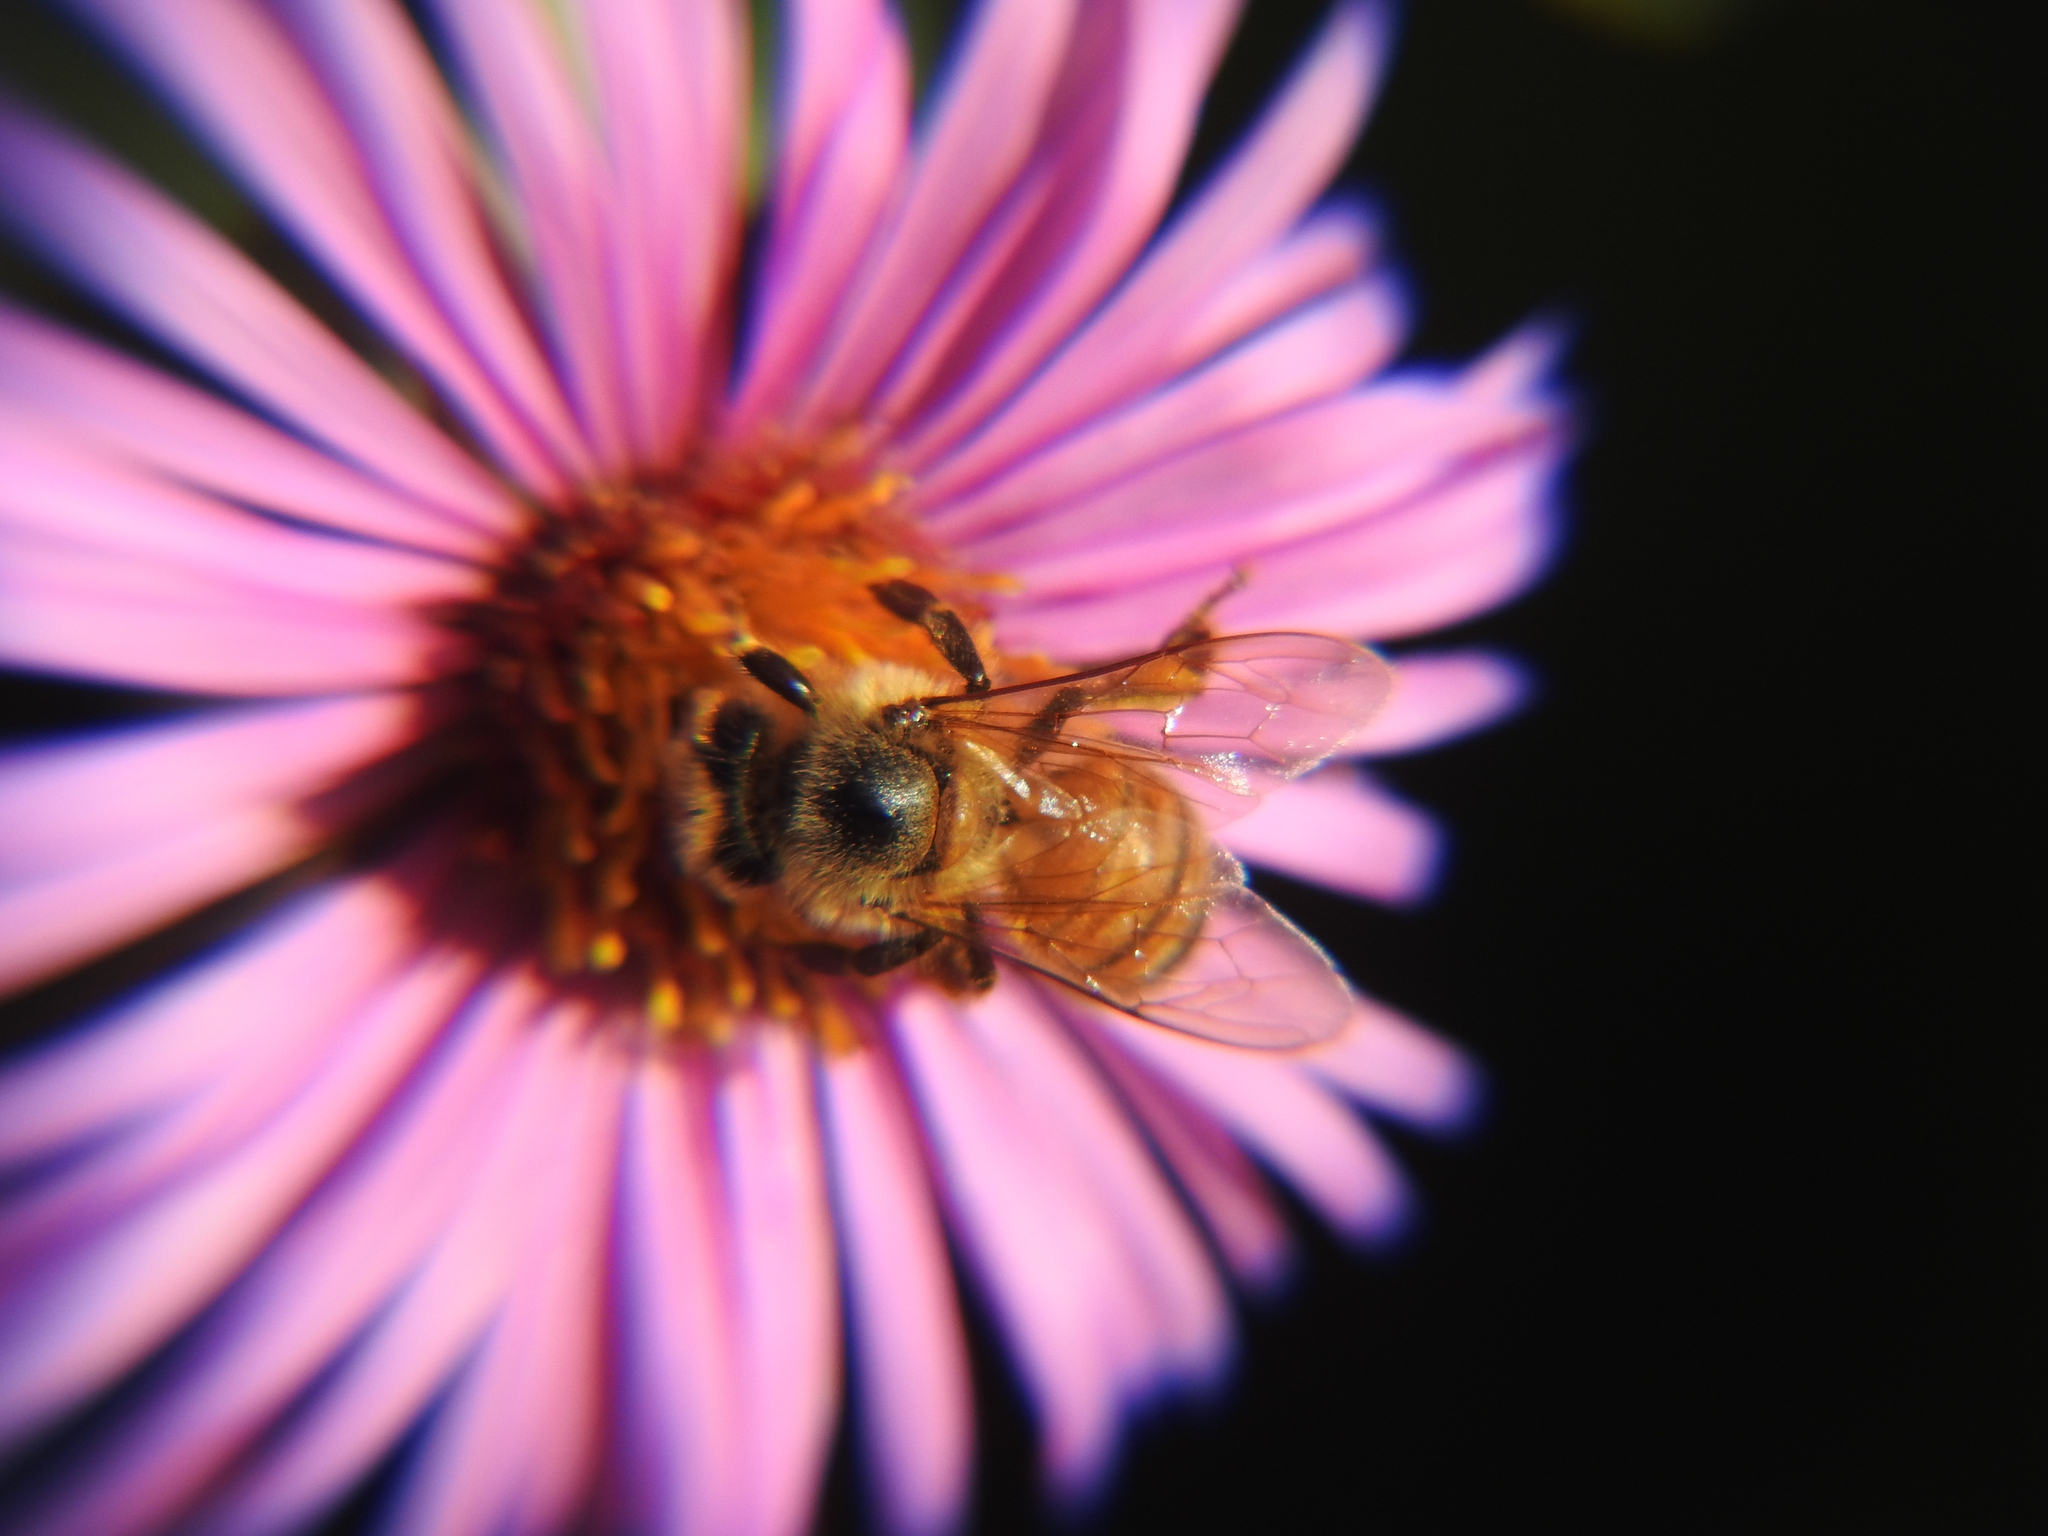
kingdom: Animalia
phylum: Arthropoda
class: Insecta
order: Hymenoptera
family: Apidae
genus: Apis
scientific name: Apis mellifera
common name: Honey bee
